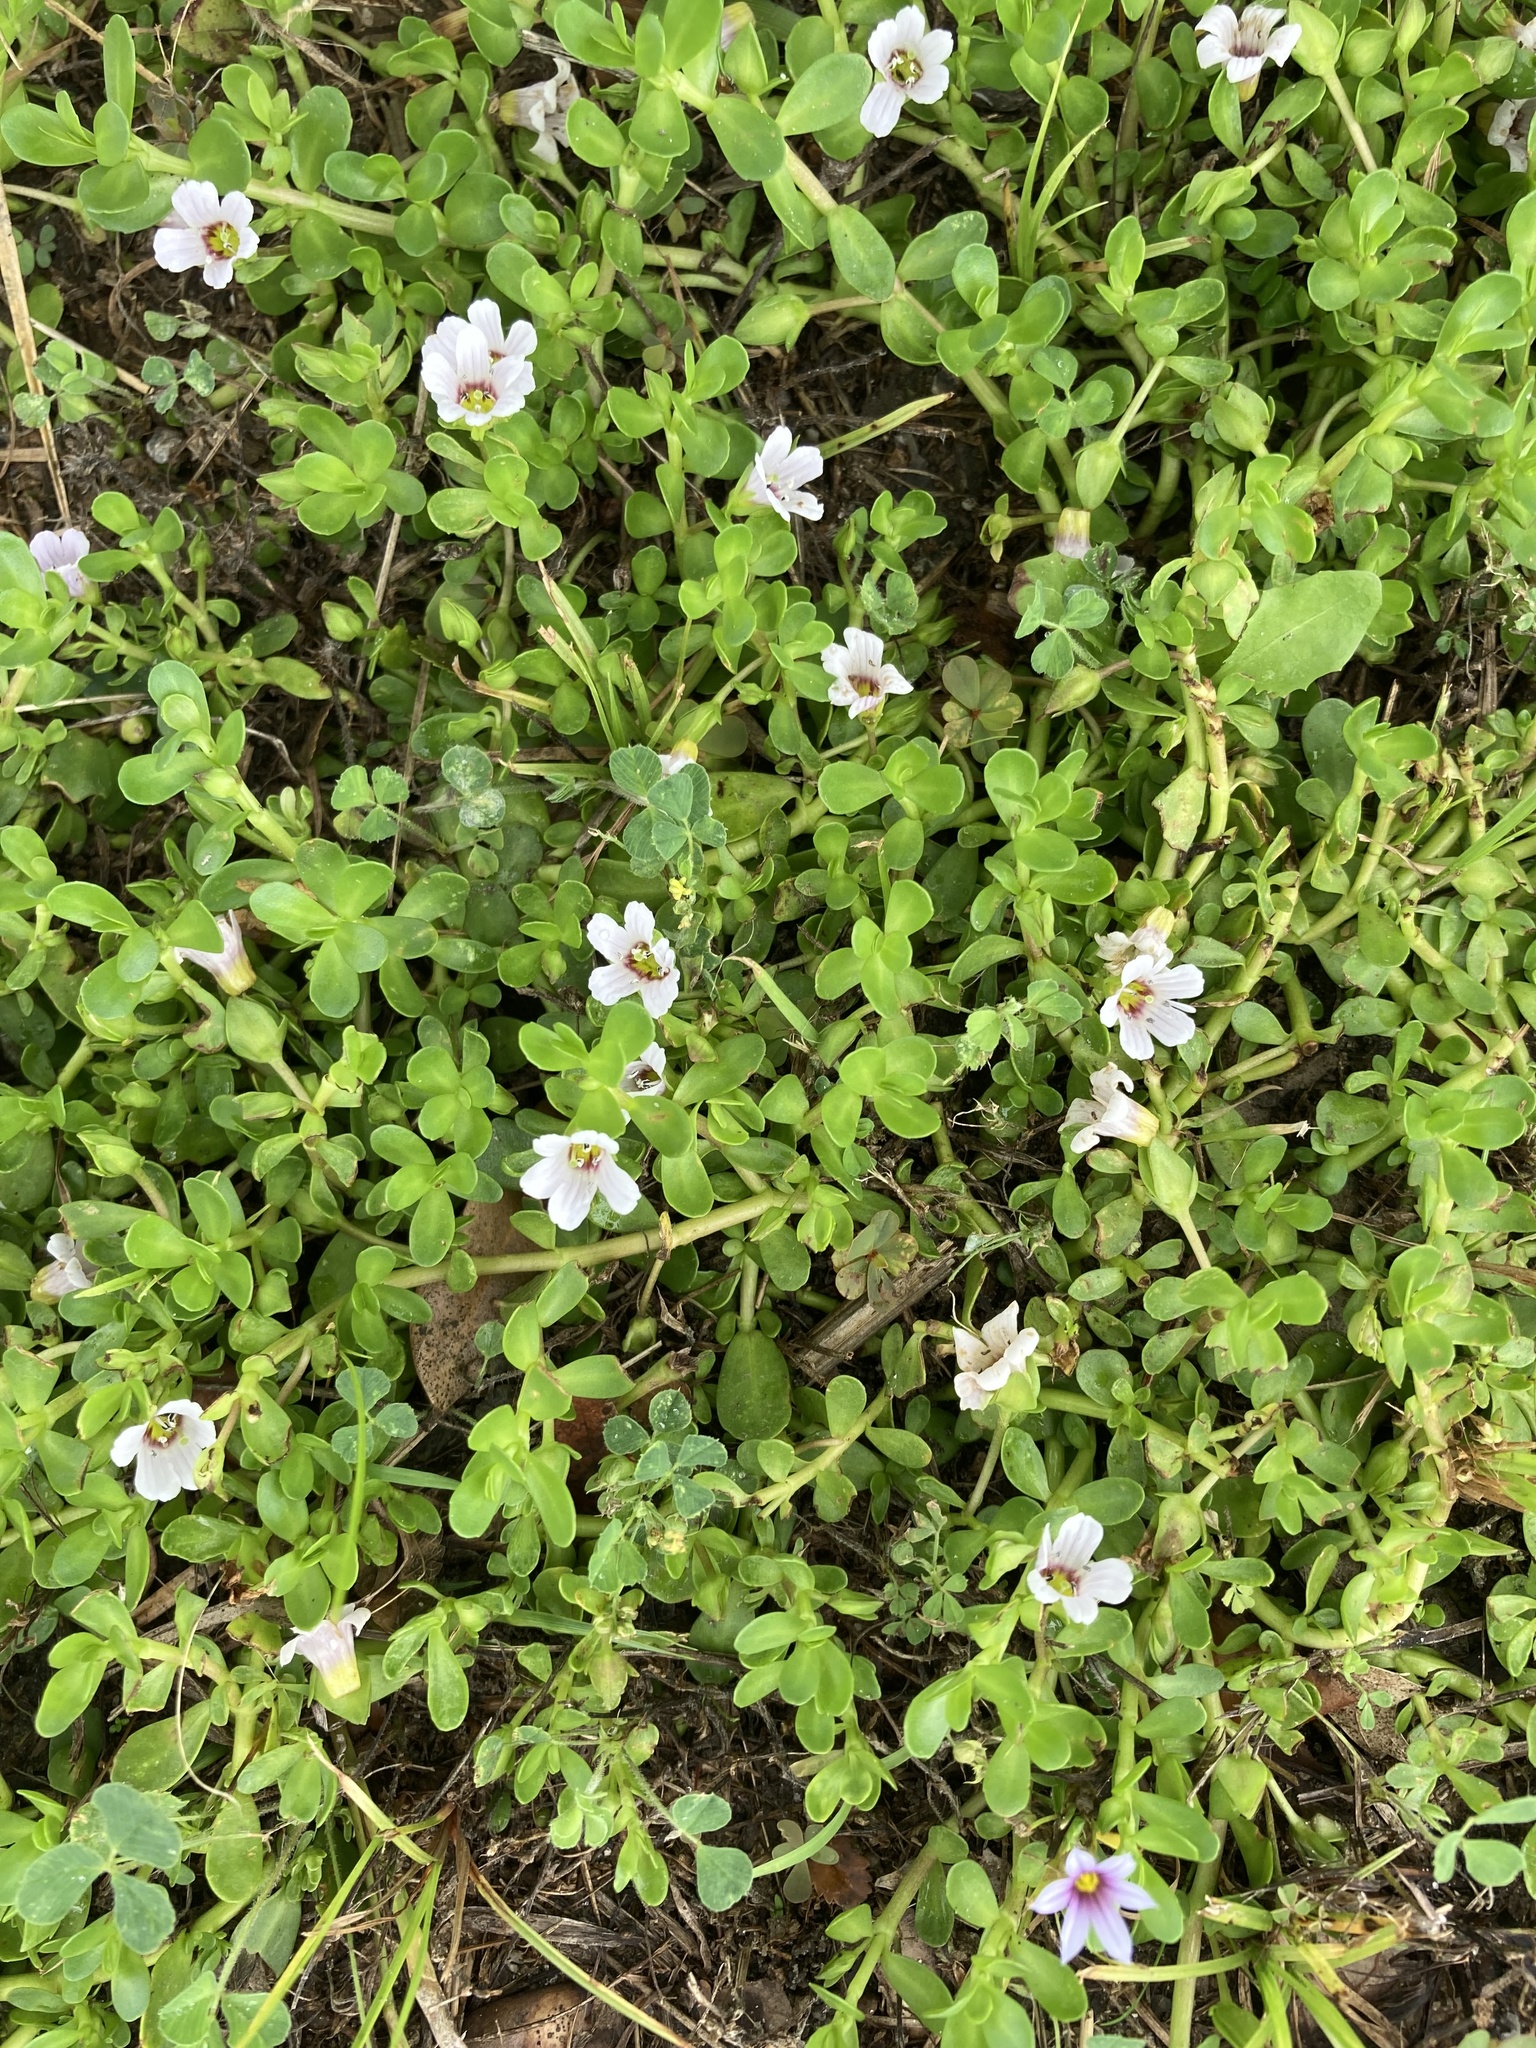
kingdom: Plantae
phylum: Tracheophyta
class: Magnoliopsida
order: Lamiales
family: Plantaginaceae
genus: Bacopa
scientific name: Bacopa monnieri
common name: Indian-pennywort
